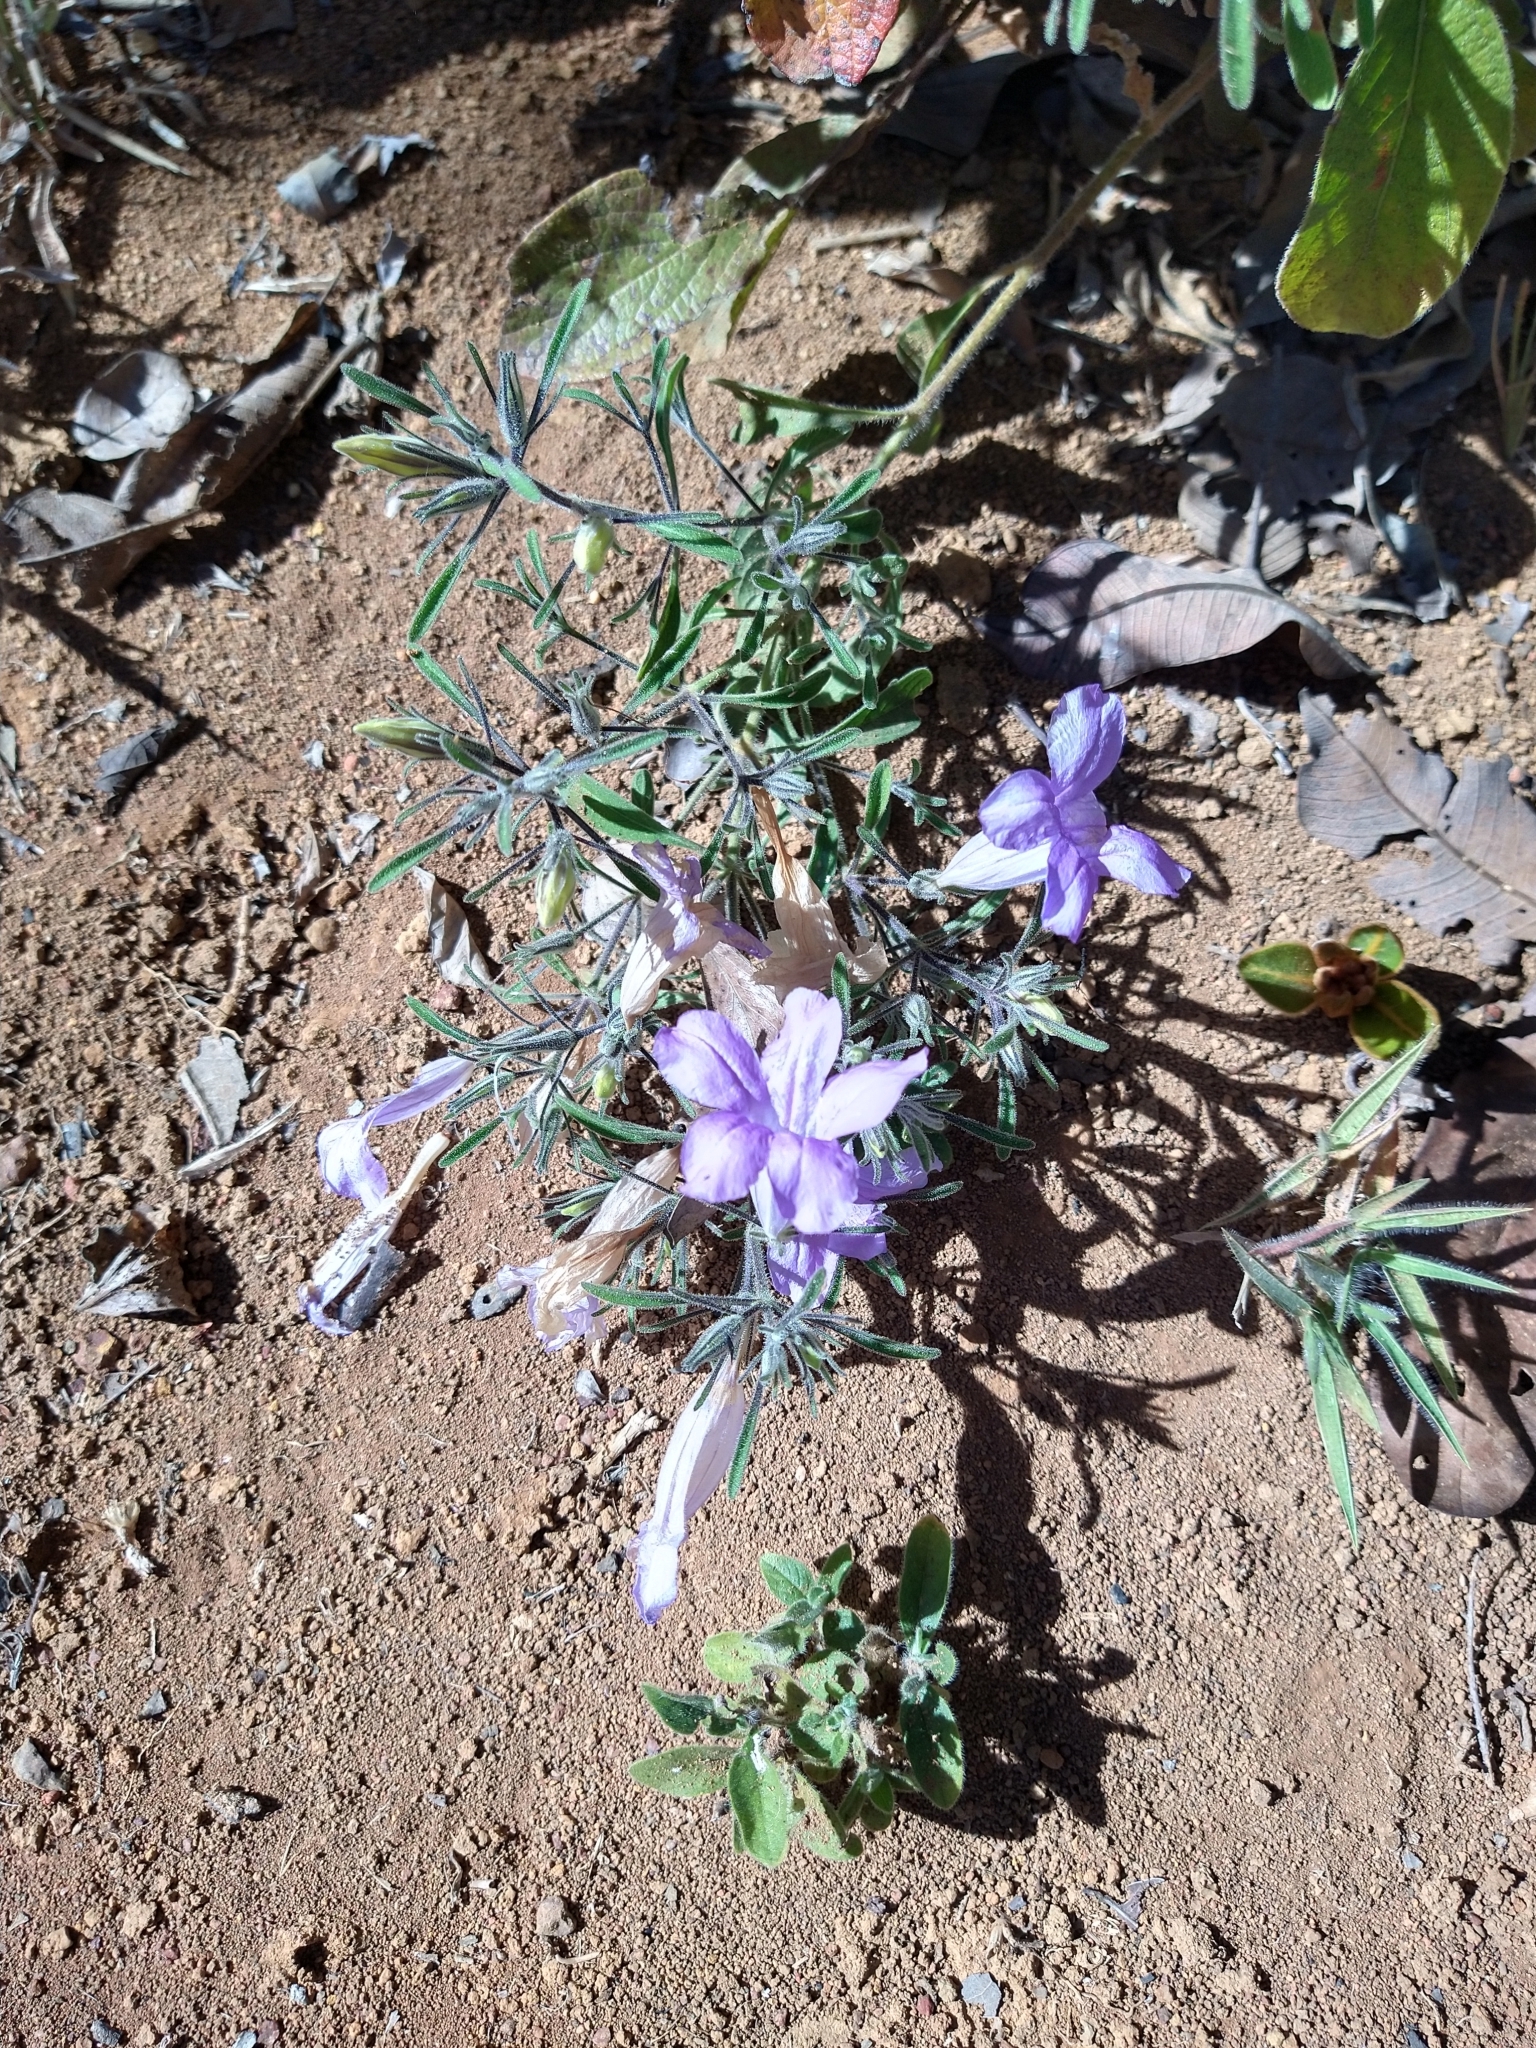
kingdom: Plantae
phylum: Tracheophyta
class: Magnoliopsida
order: Lamiales
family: Acanthaceae
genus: Ruellia
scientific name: Ruellia incompta
